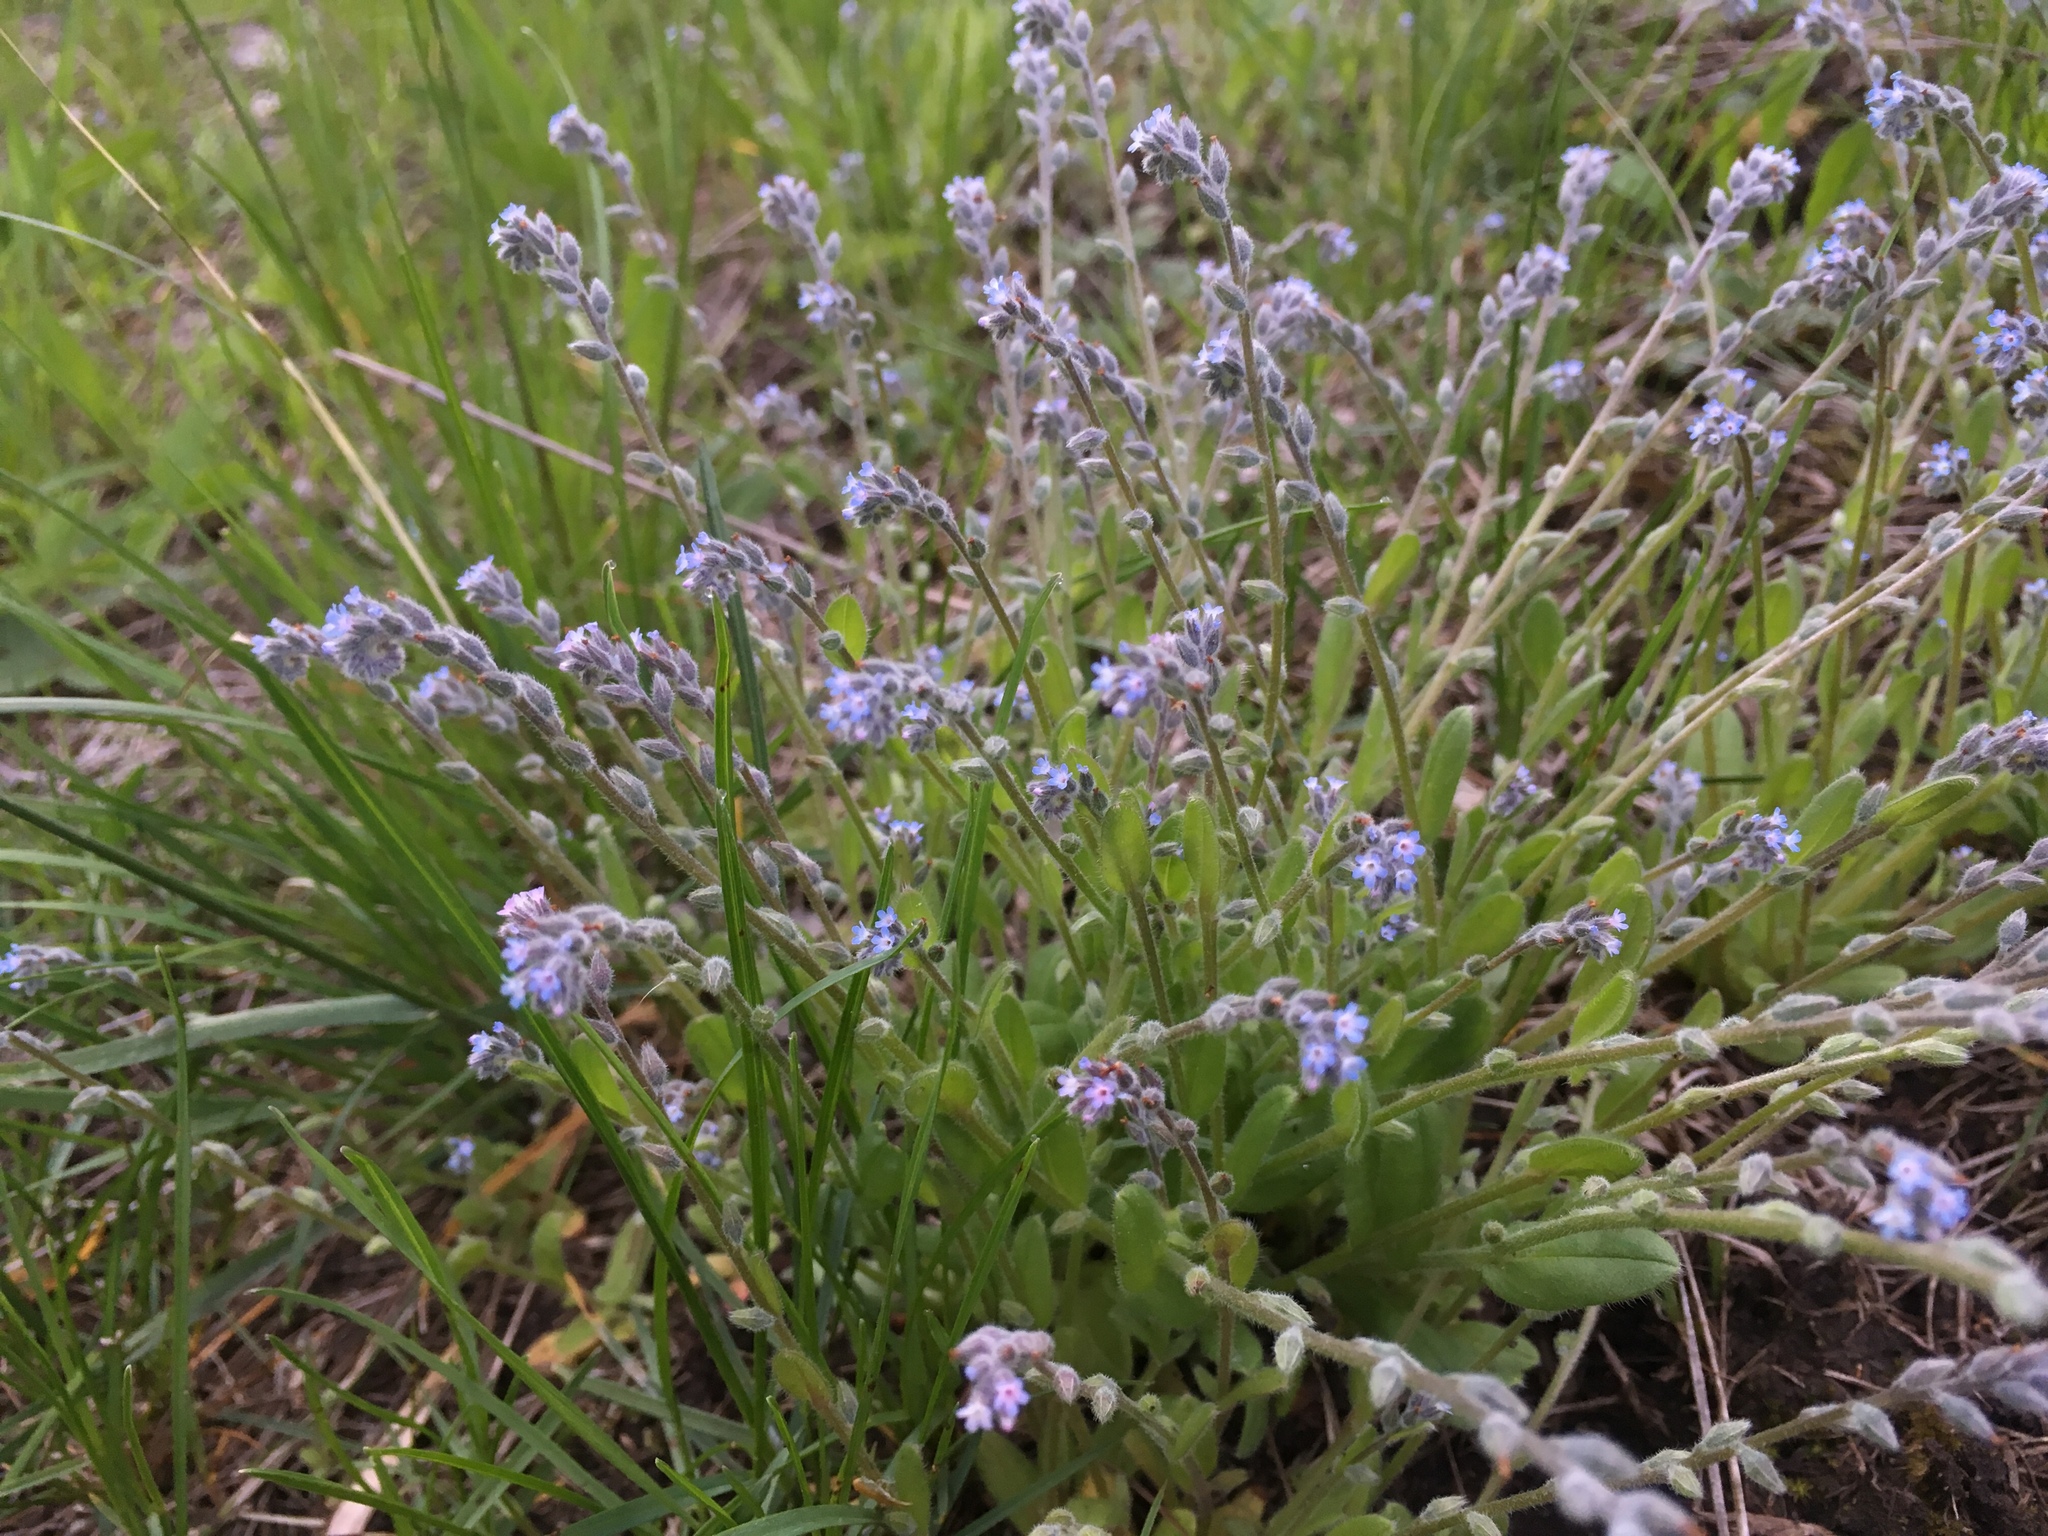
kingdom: Plantae
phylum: Tracheophyta
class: Magnoliopsida
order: Boraginales
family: Boraginaceae
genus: Myosotis
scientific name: Myosotis stricta
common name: Strict forget-me-not
